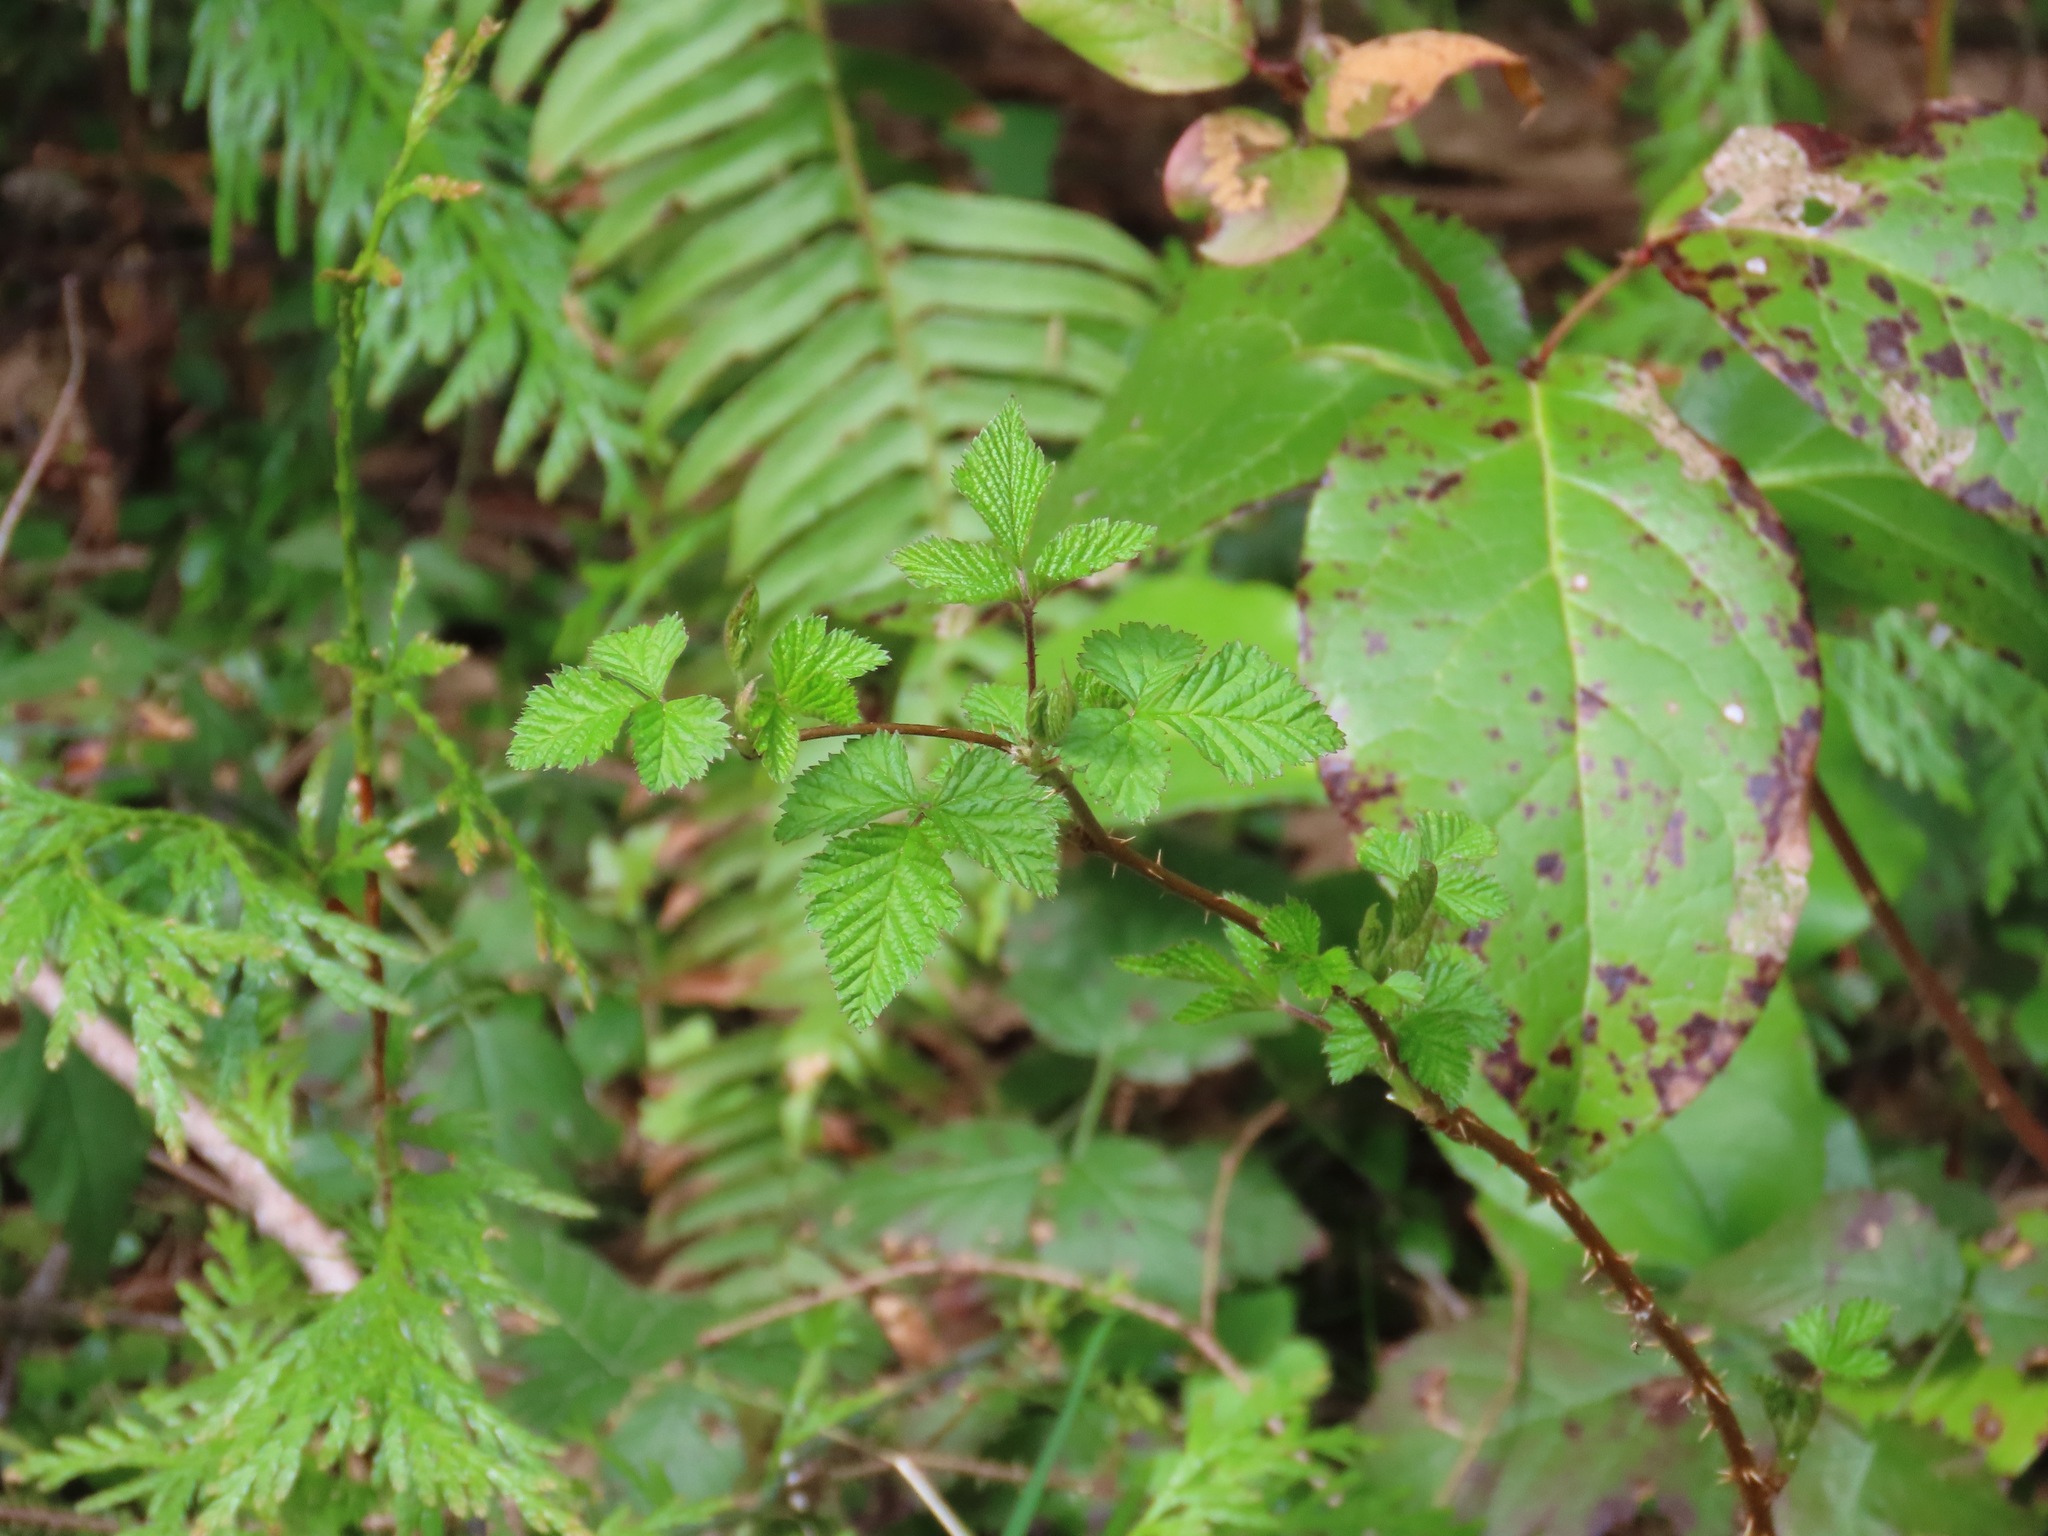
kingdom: Plantae
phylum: Tracheophyta
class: Magnoliopsida
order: Rosales
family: Rosaceae
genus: Rubus
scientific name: Rubus spectabilis
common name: Salmonberry
